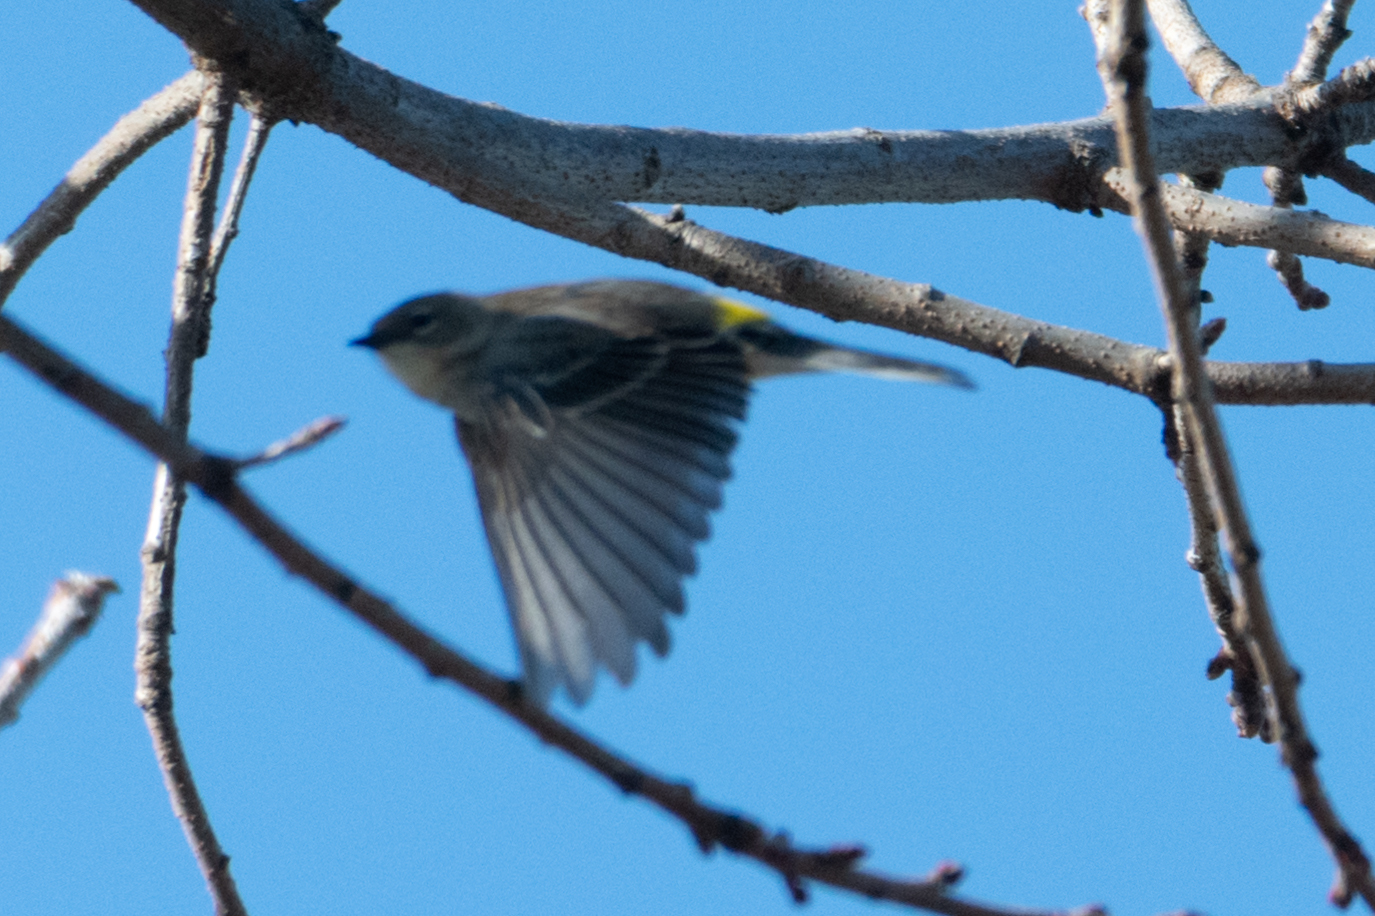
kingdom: Animalia
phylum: Chordata
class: Aves
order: Passeriformes
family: Parulidae
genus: Setophaga
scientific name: Setophaga coronata
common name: Myrtle warbler
